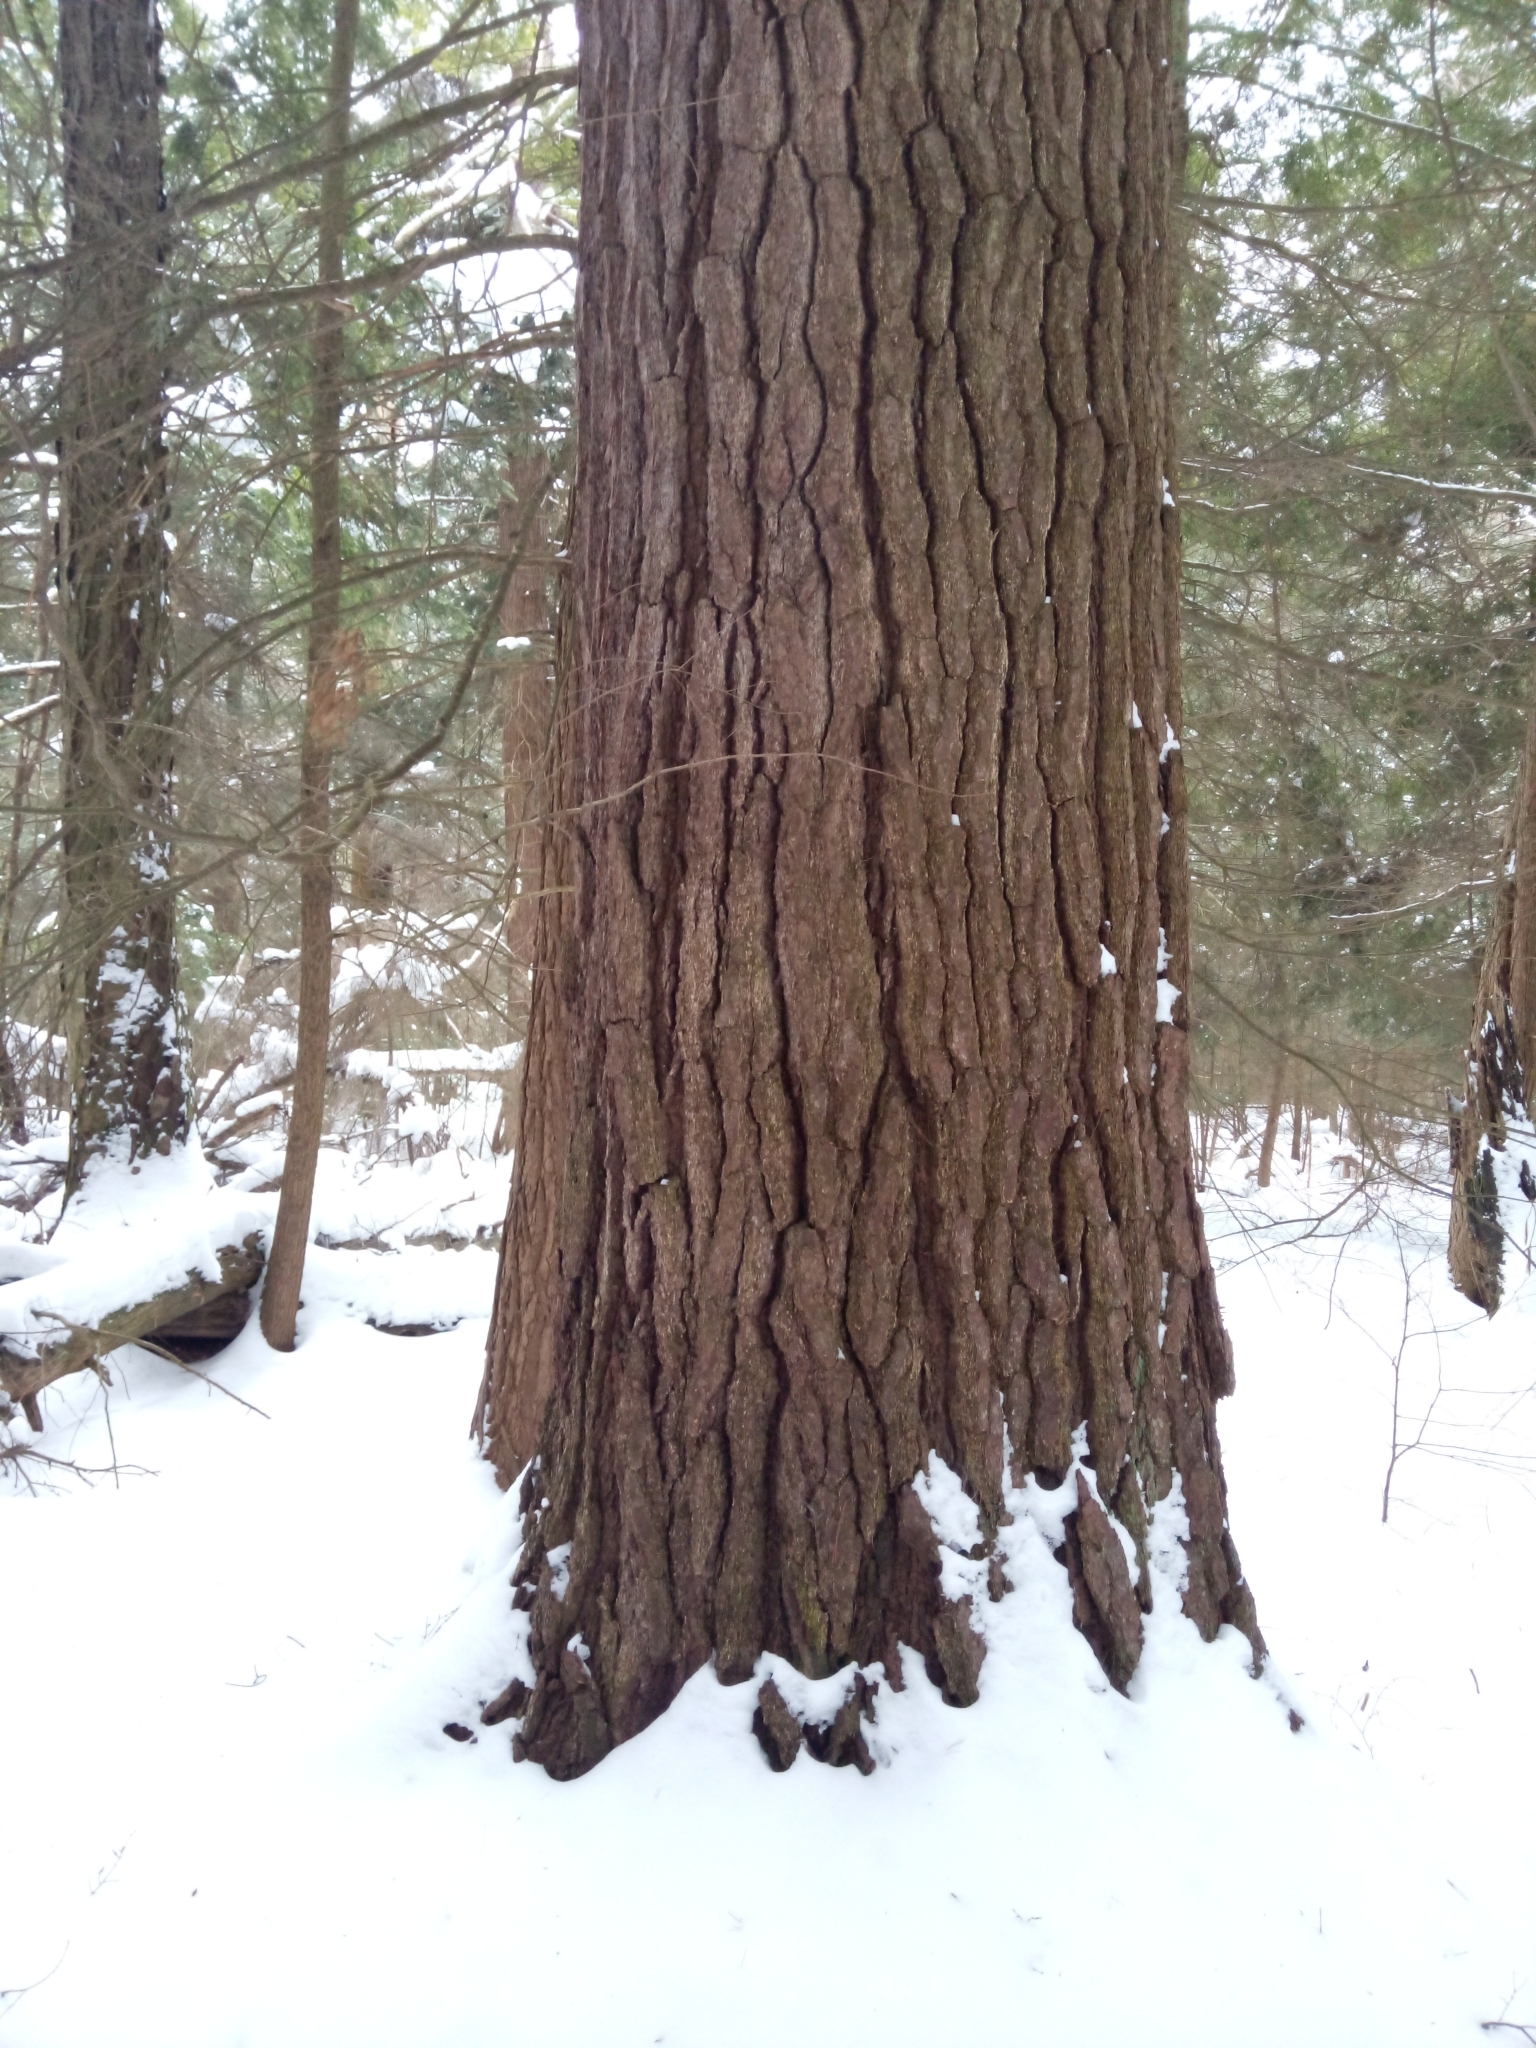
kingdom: Plantae
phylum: Tracheophyta
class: Pinopsida
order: Pinales
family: Pinaceae
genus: Pinus
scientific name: Pinus strobus
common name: Weymouth pine
